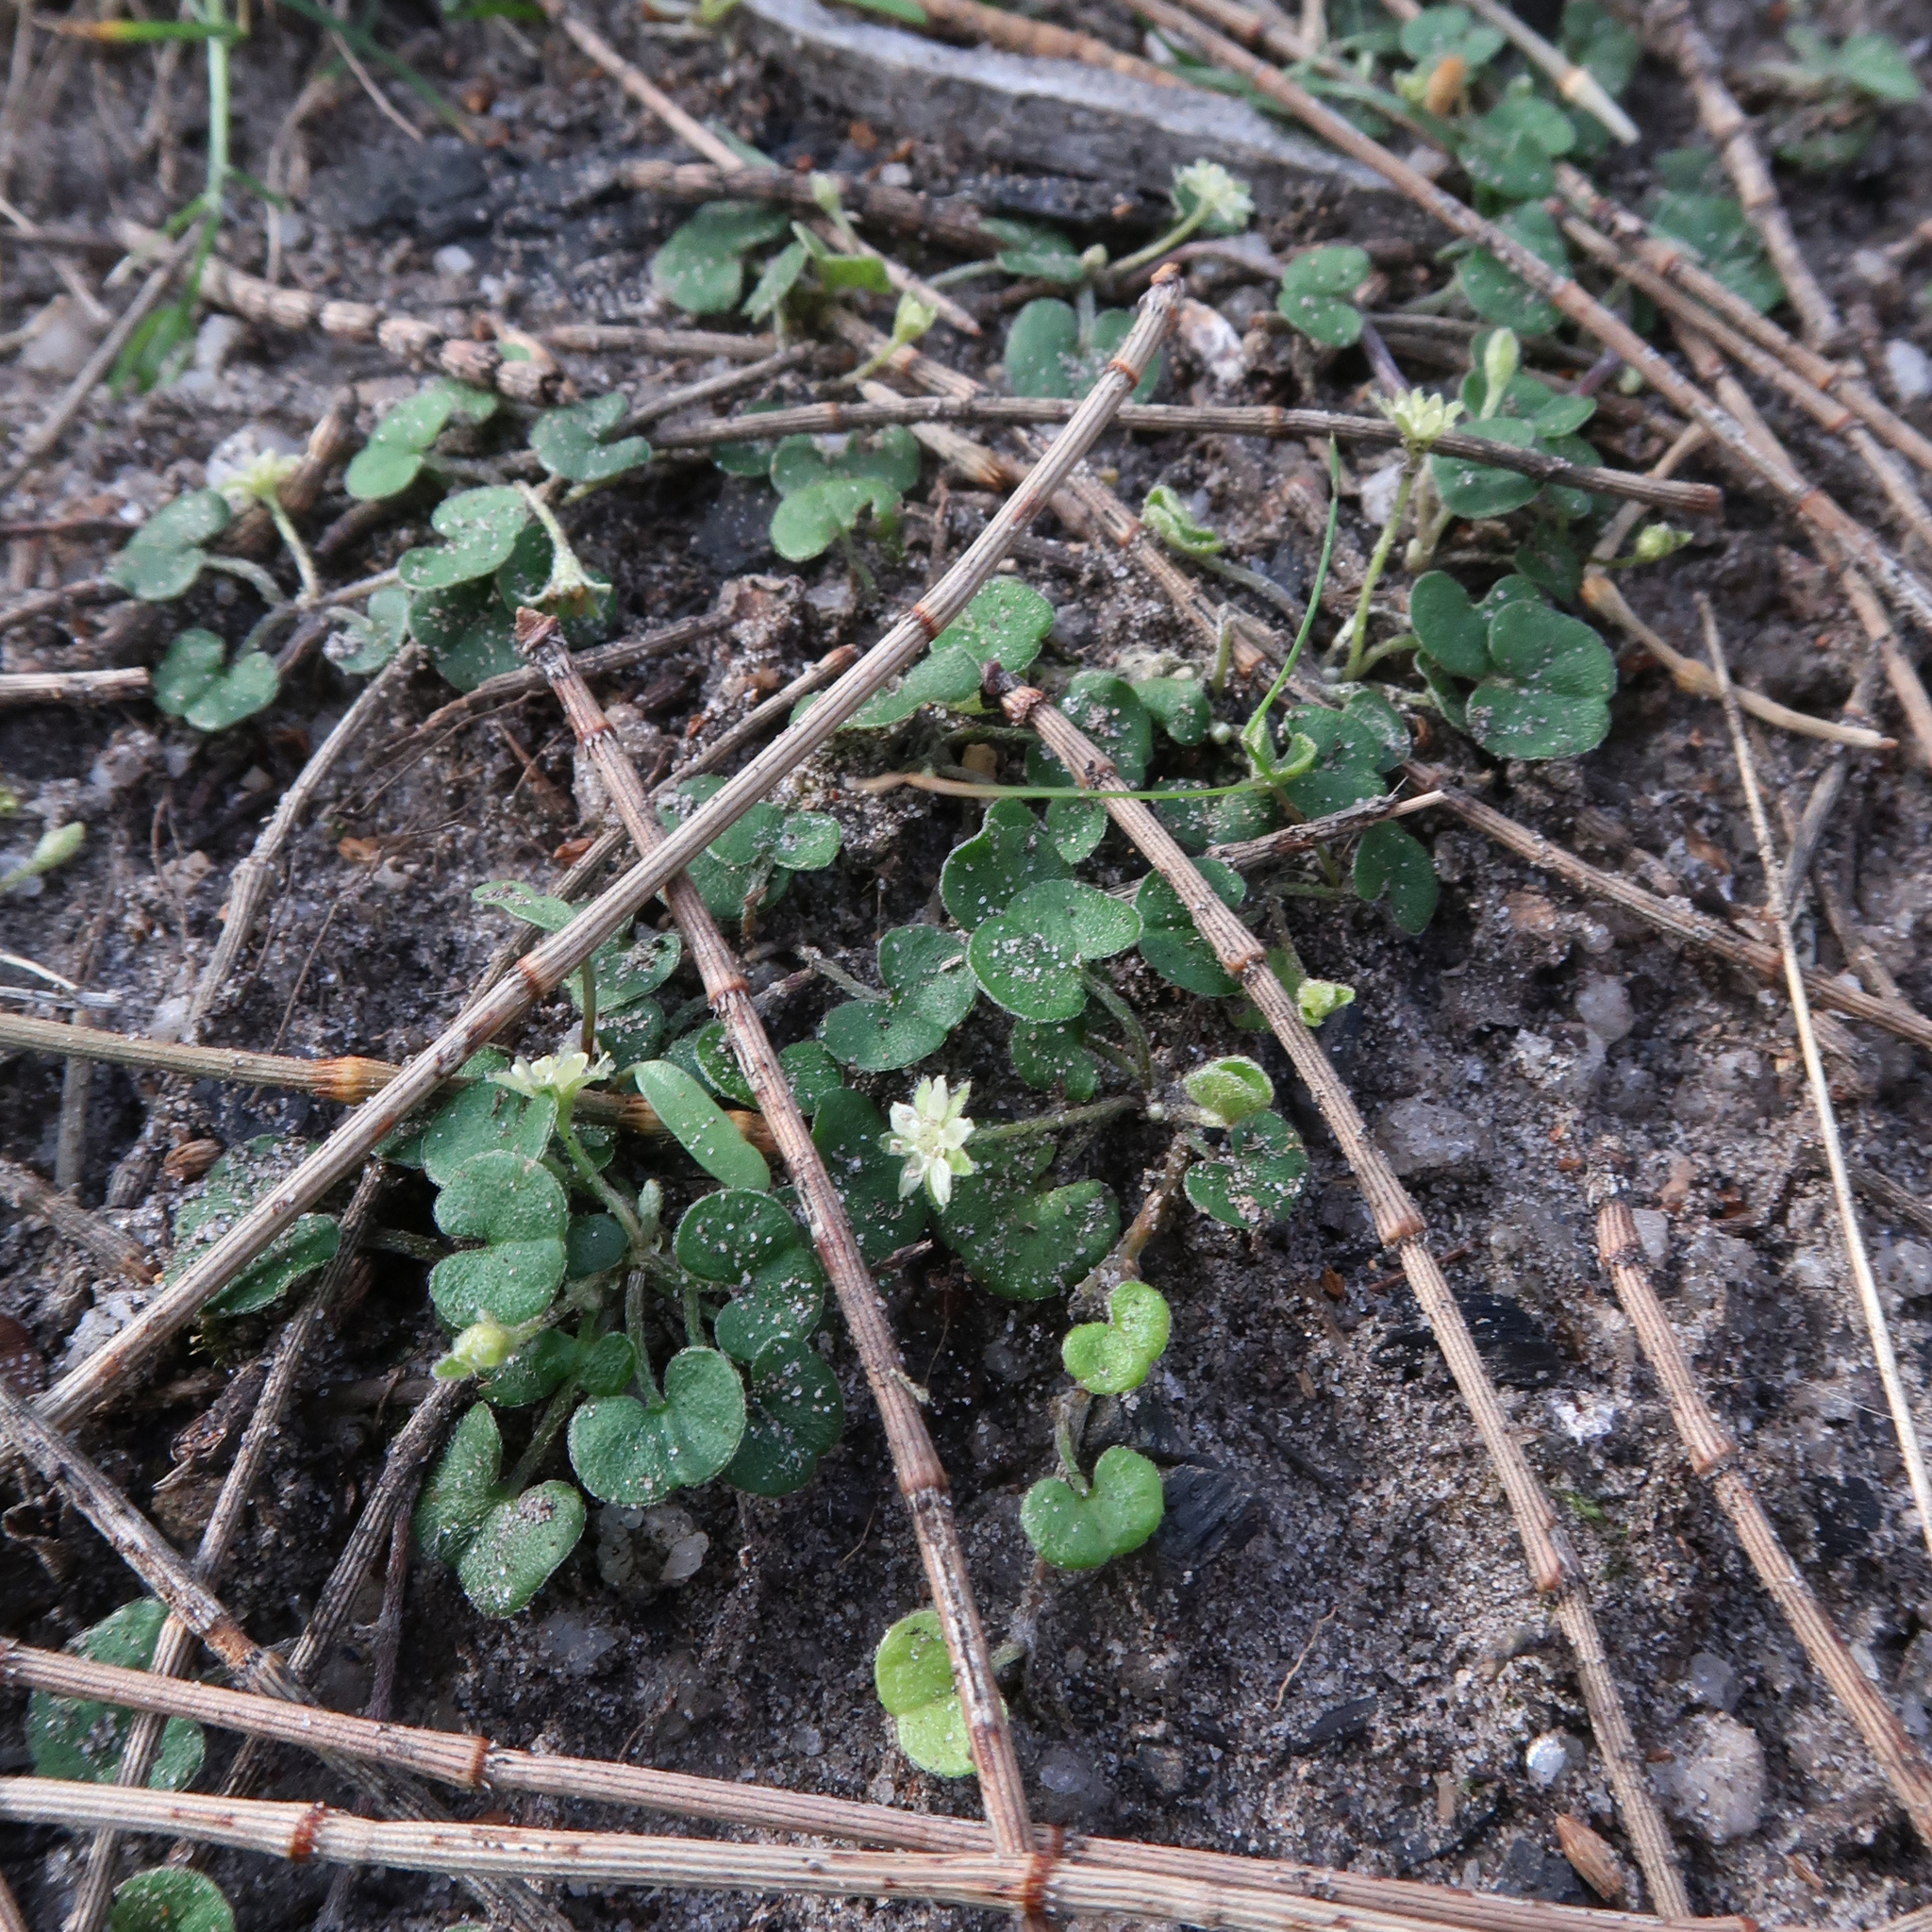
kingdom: Plantae
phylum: Tracheophyta
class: Magnoliopsida
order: Solanales
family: Convolvulaceae
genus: Dichondra
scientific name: Dichondra repens
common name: Kidneyweed
